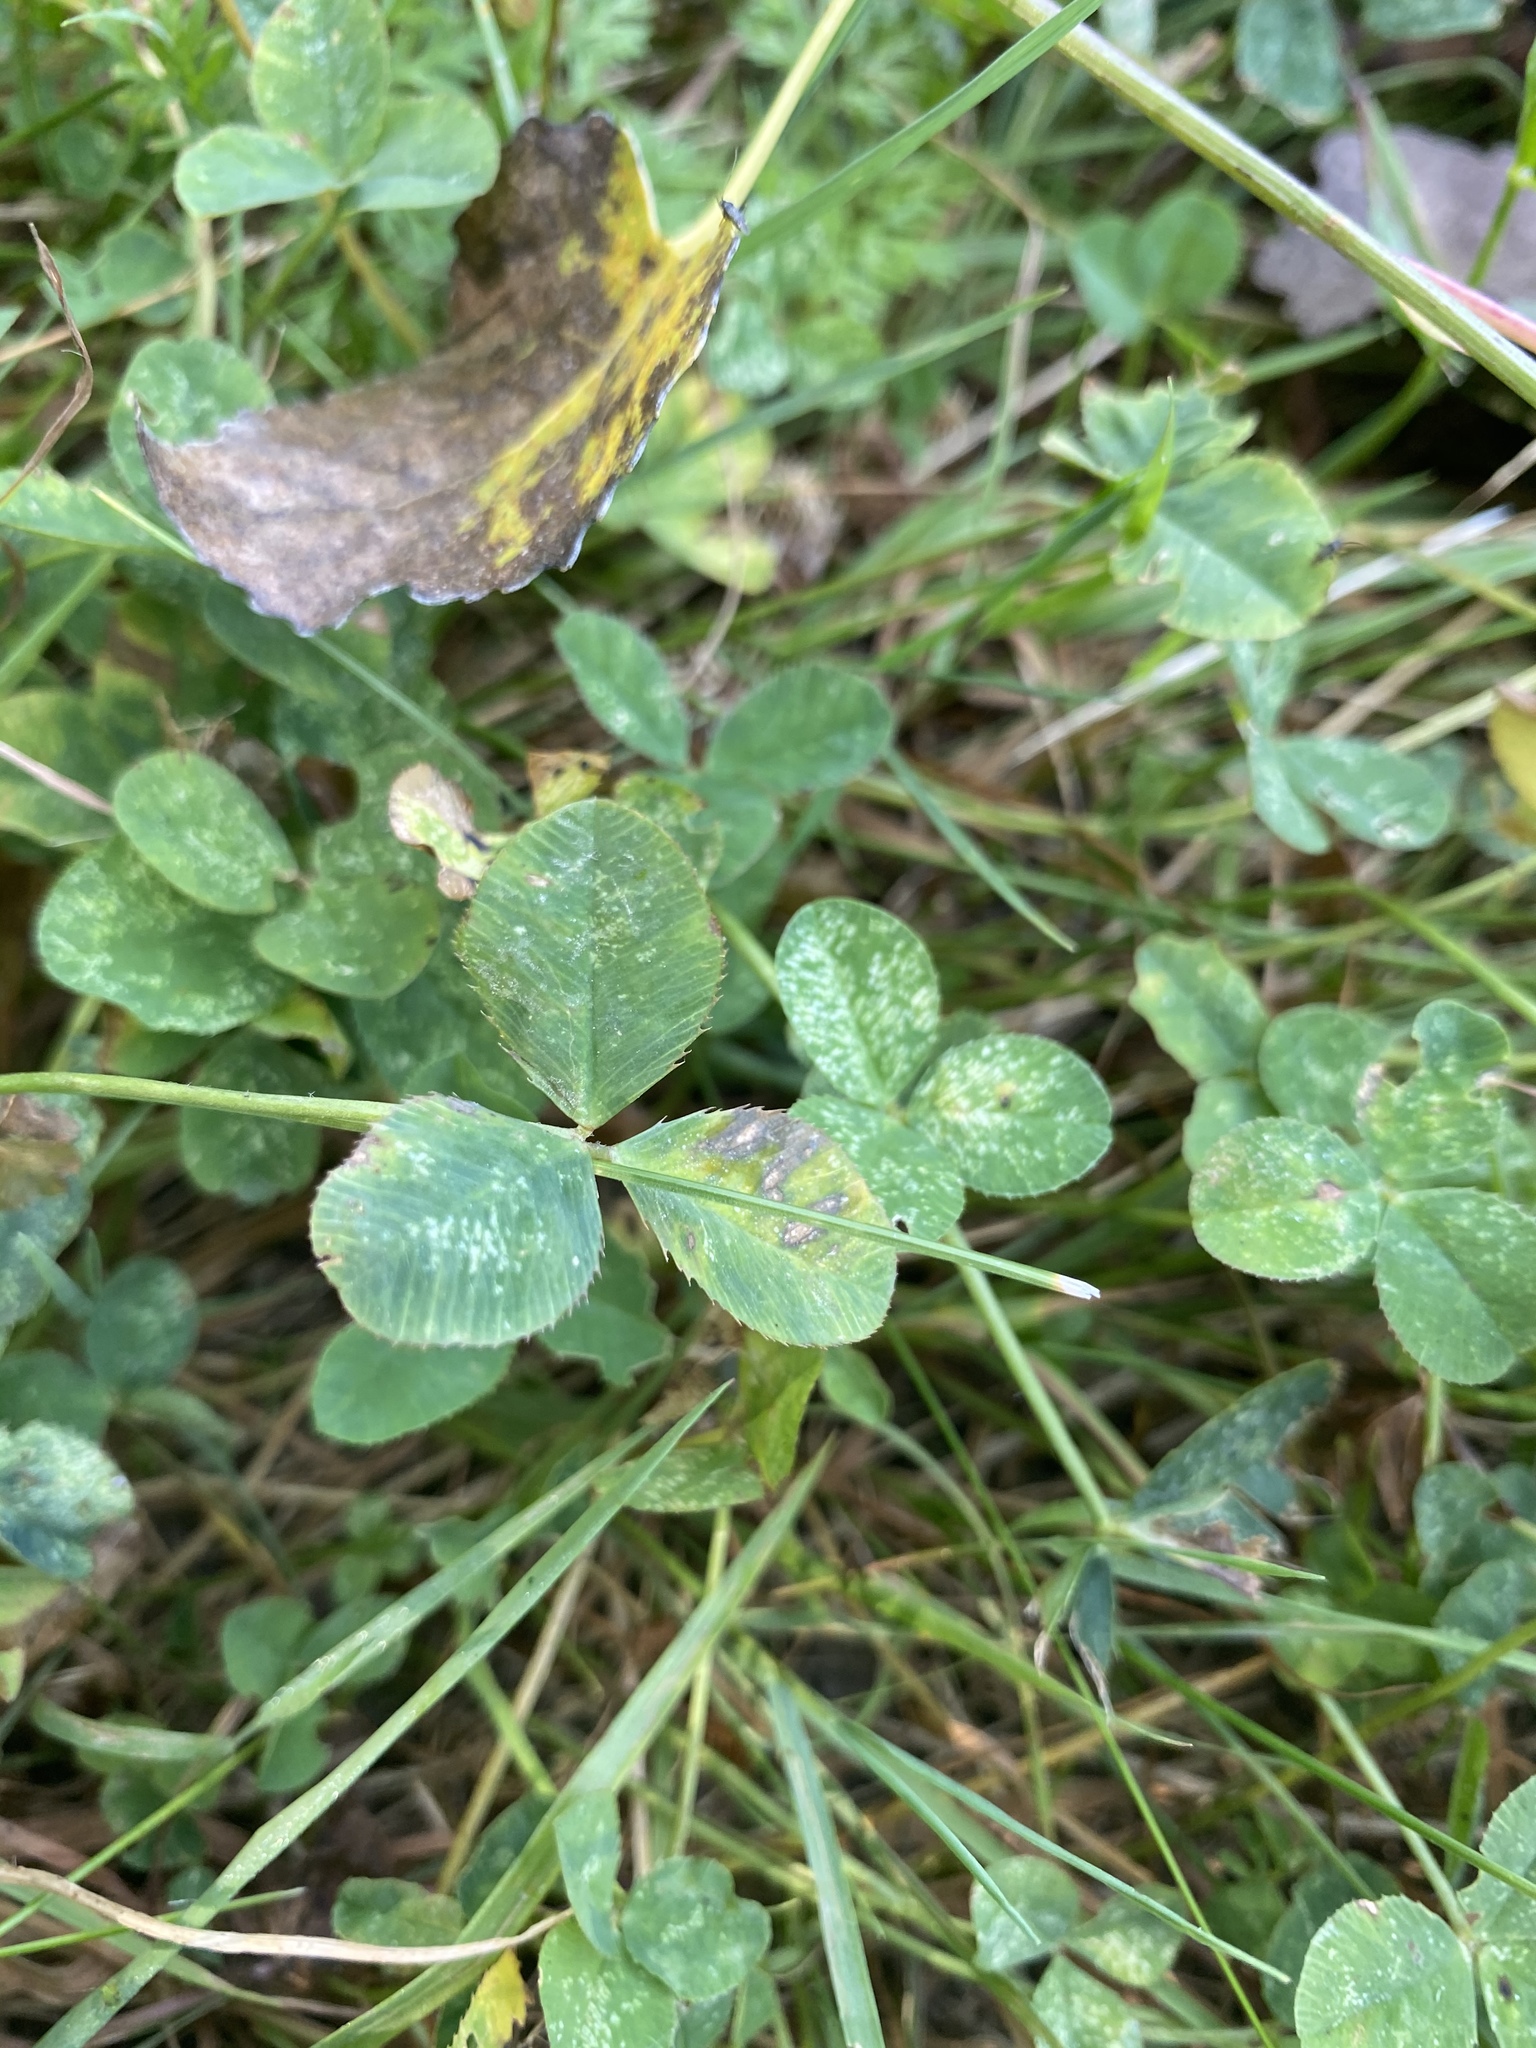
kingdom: Plantae
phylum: Tracheophyta
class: Magnoliopsida
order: Fabales
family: Fabaceae
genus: Trifolium
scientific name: Trifolium pratense
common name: Red clover
